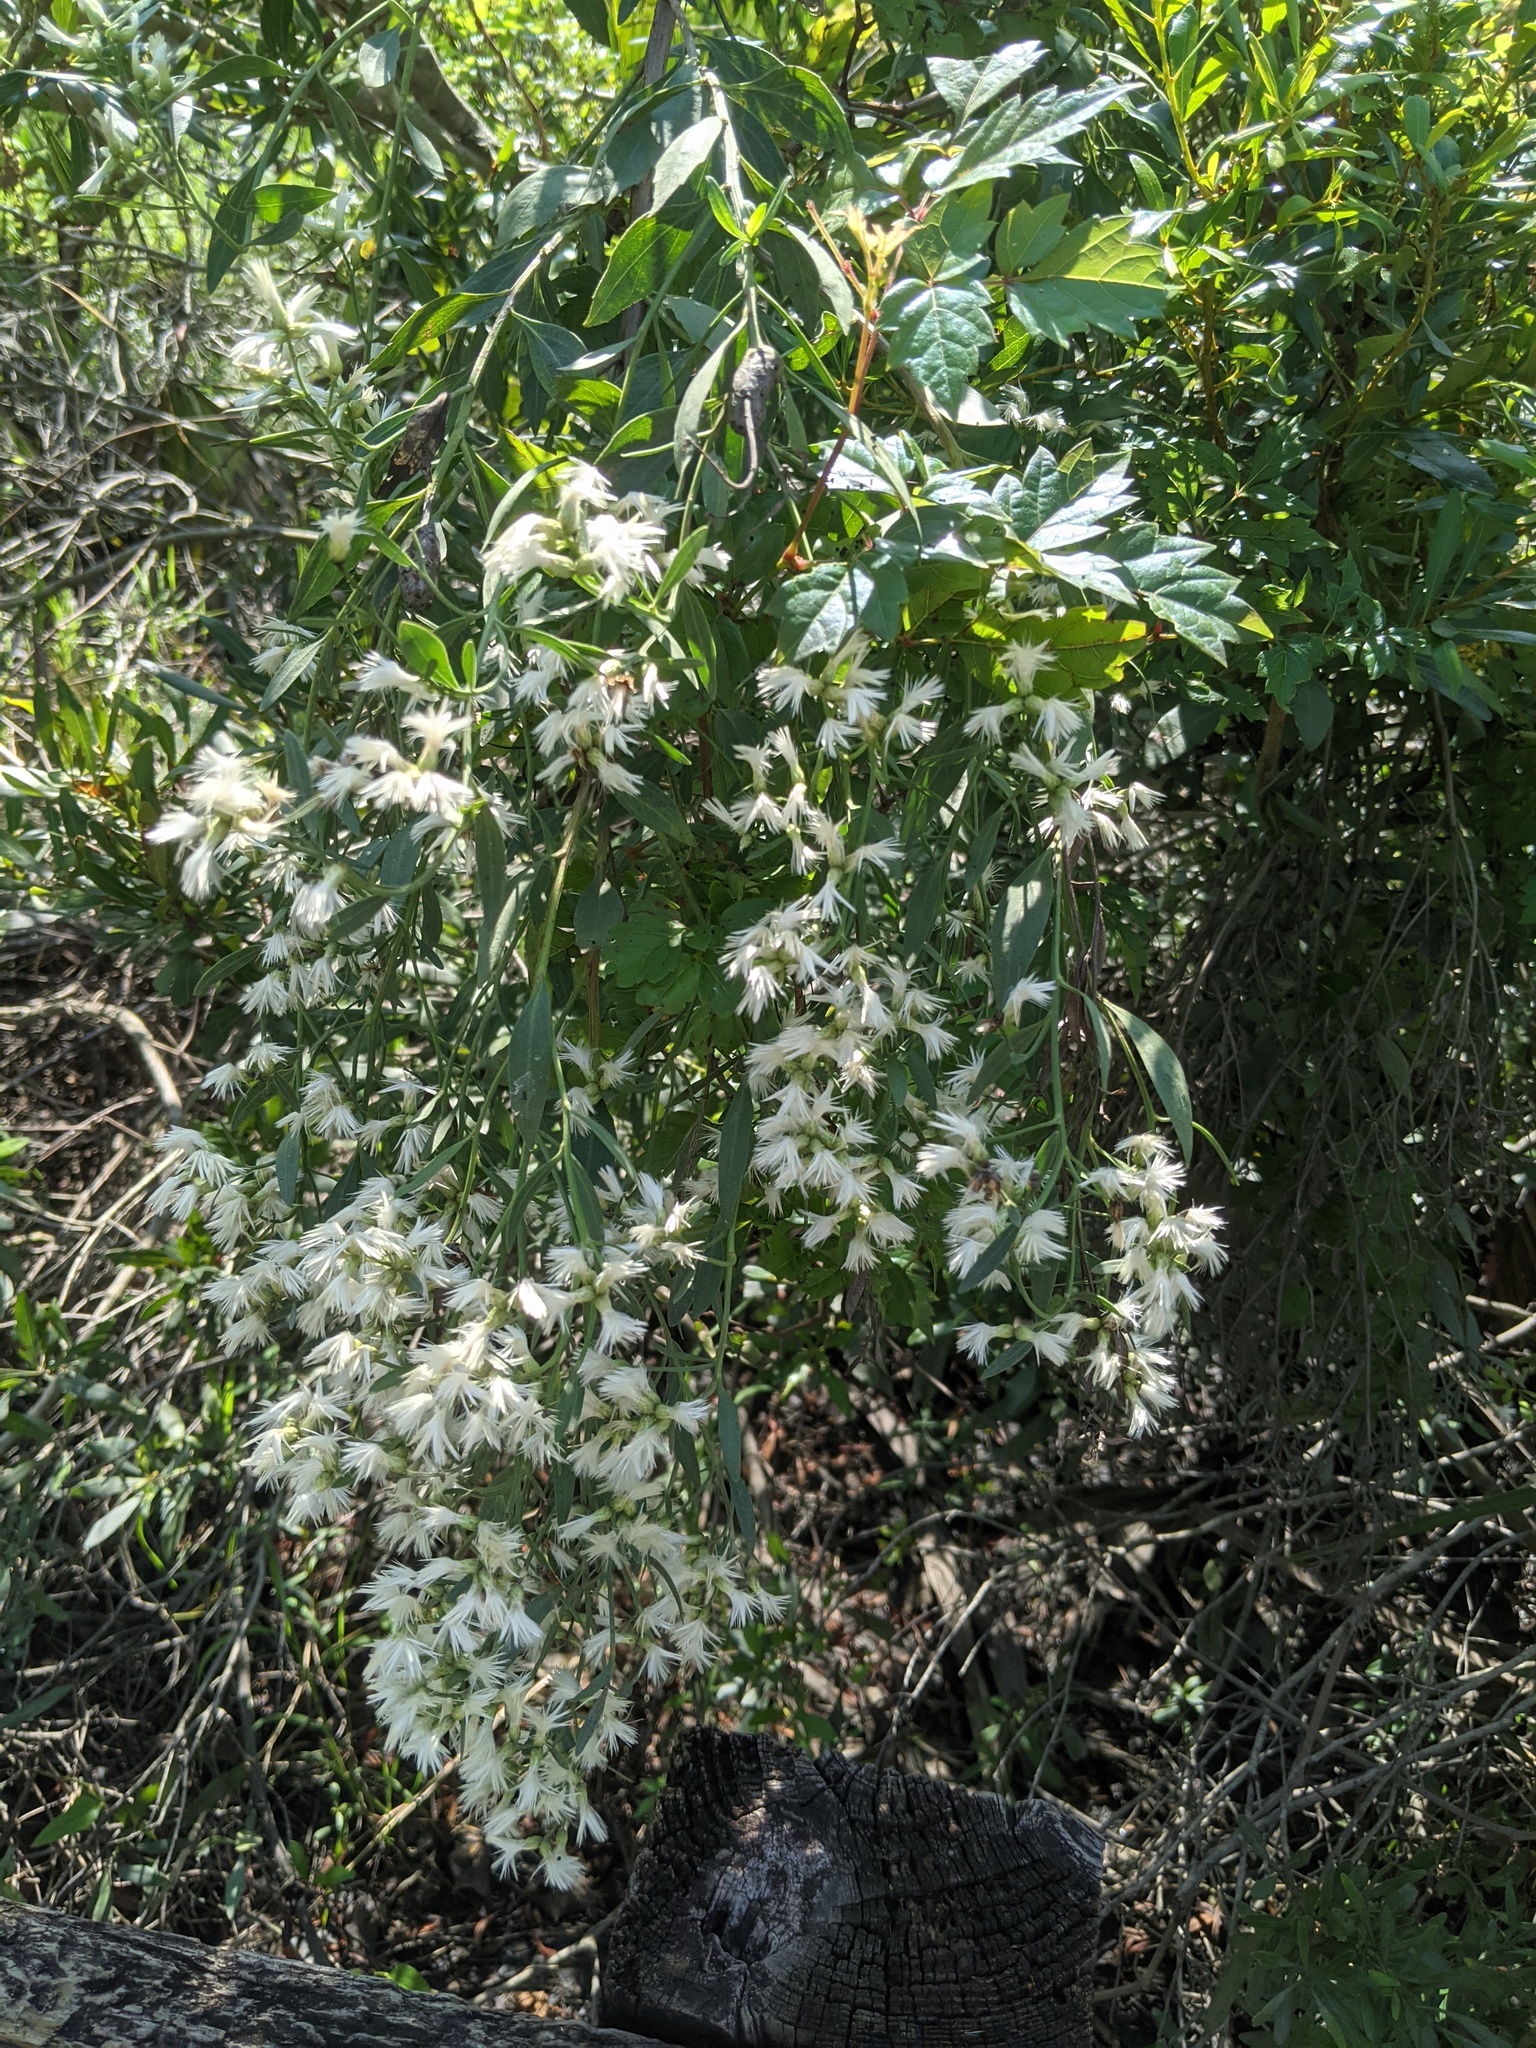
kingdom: Plantae
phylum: Tracheophyta
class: Magnoliopsida
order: Asterales
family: Asteraceae
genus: Baccharis
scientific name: Baccharis halimifolia
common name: Eastern baccharis
